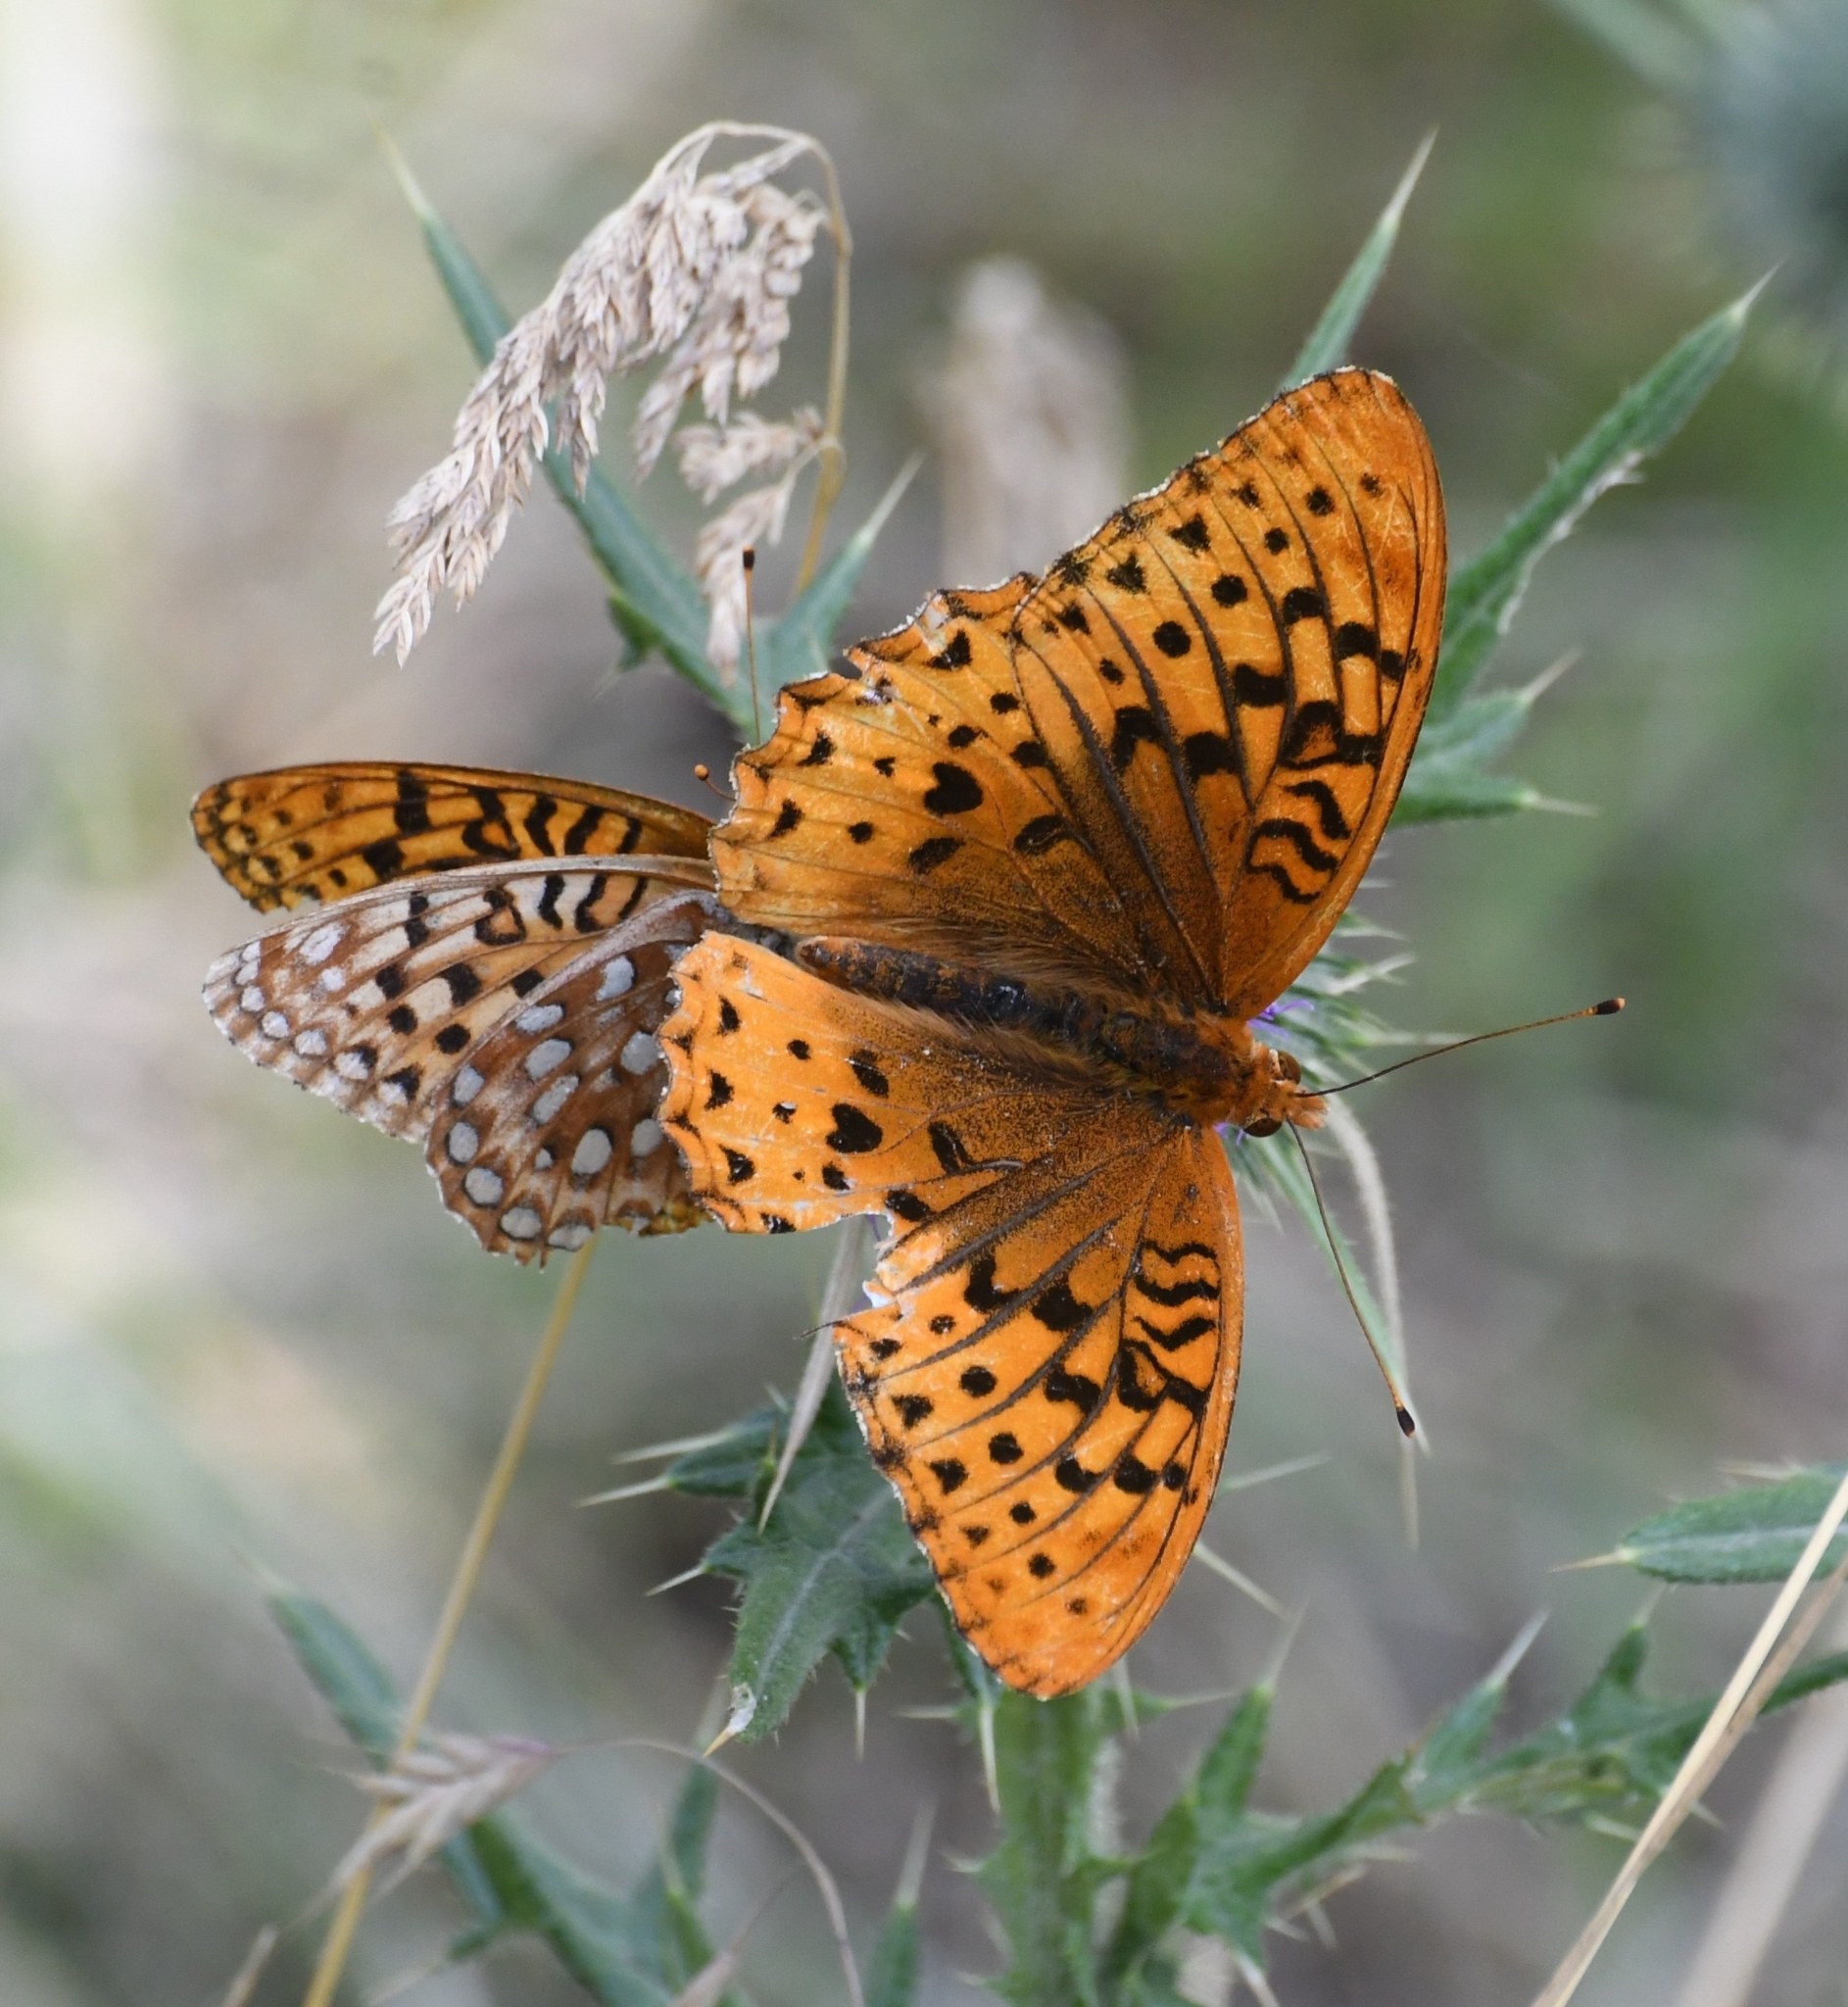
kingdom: Animalia
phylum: Arthropoda
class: Insecta
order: Lepidoptera
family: Nymphalidae
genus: Speyeria
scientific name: Speyeria cybele
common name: Great spangled fritillary
